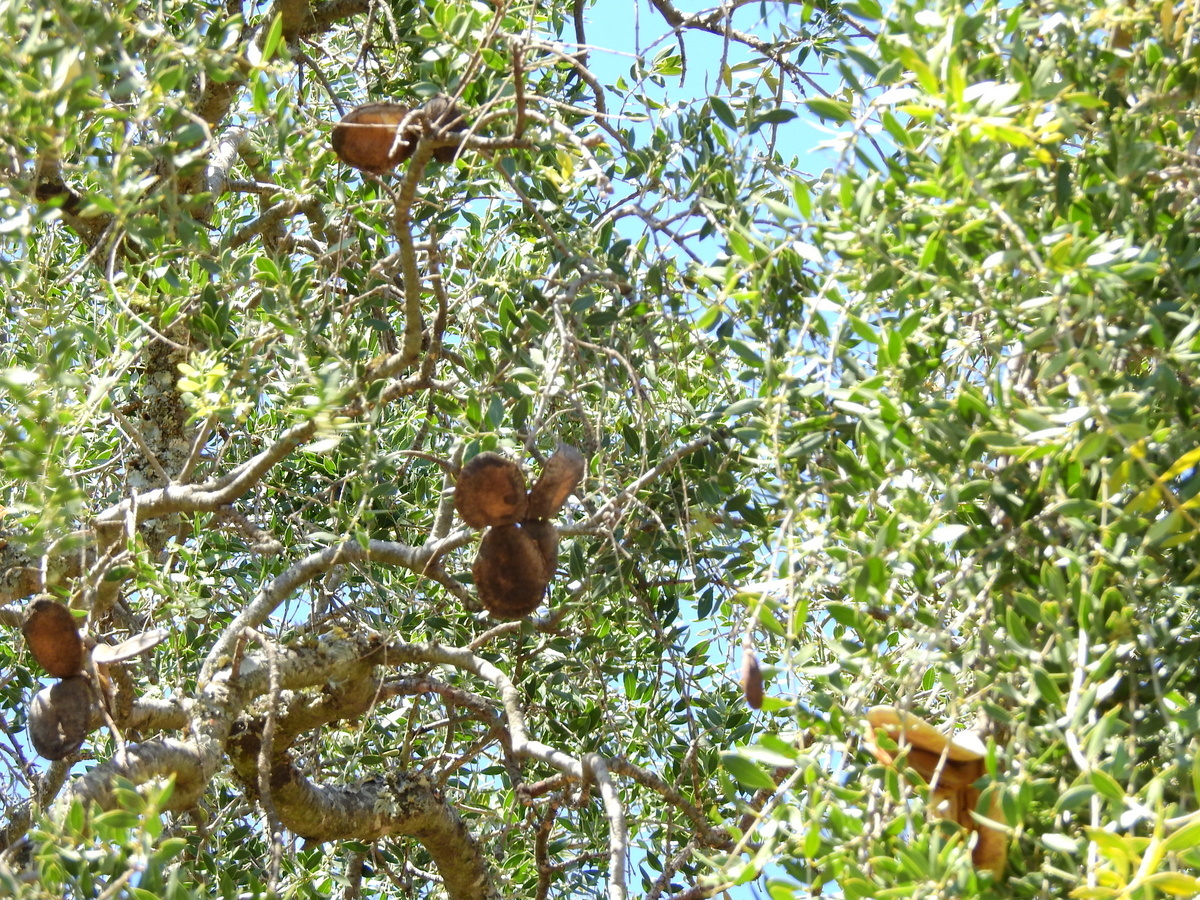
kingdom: Plantae
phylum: Tracheophyta
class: Magnoliopsida
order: Gentianales
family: Apocynaceae
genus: Aspidosperma
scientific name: Aspidosperma quebracho-blanco
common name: White quebracho
